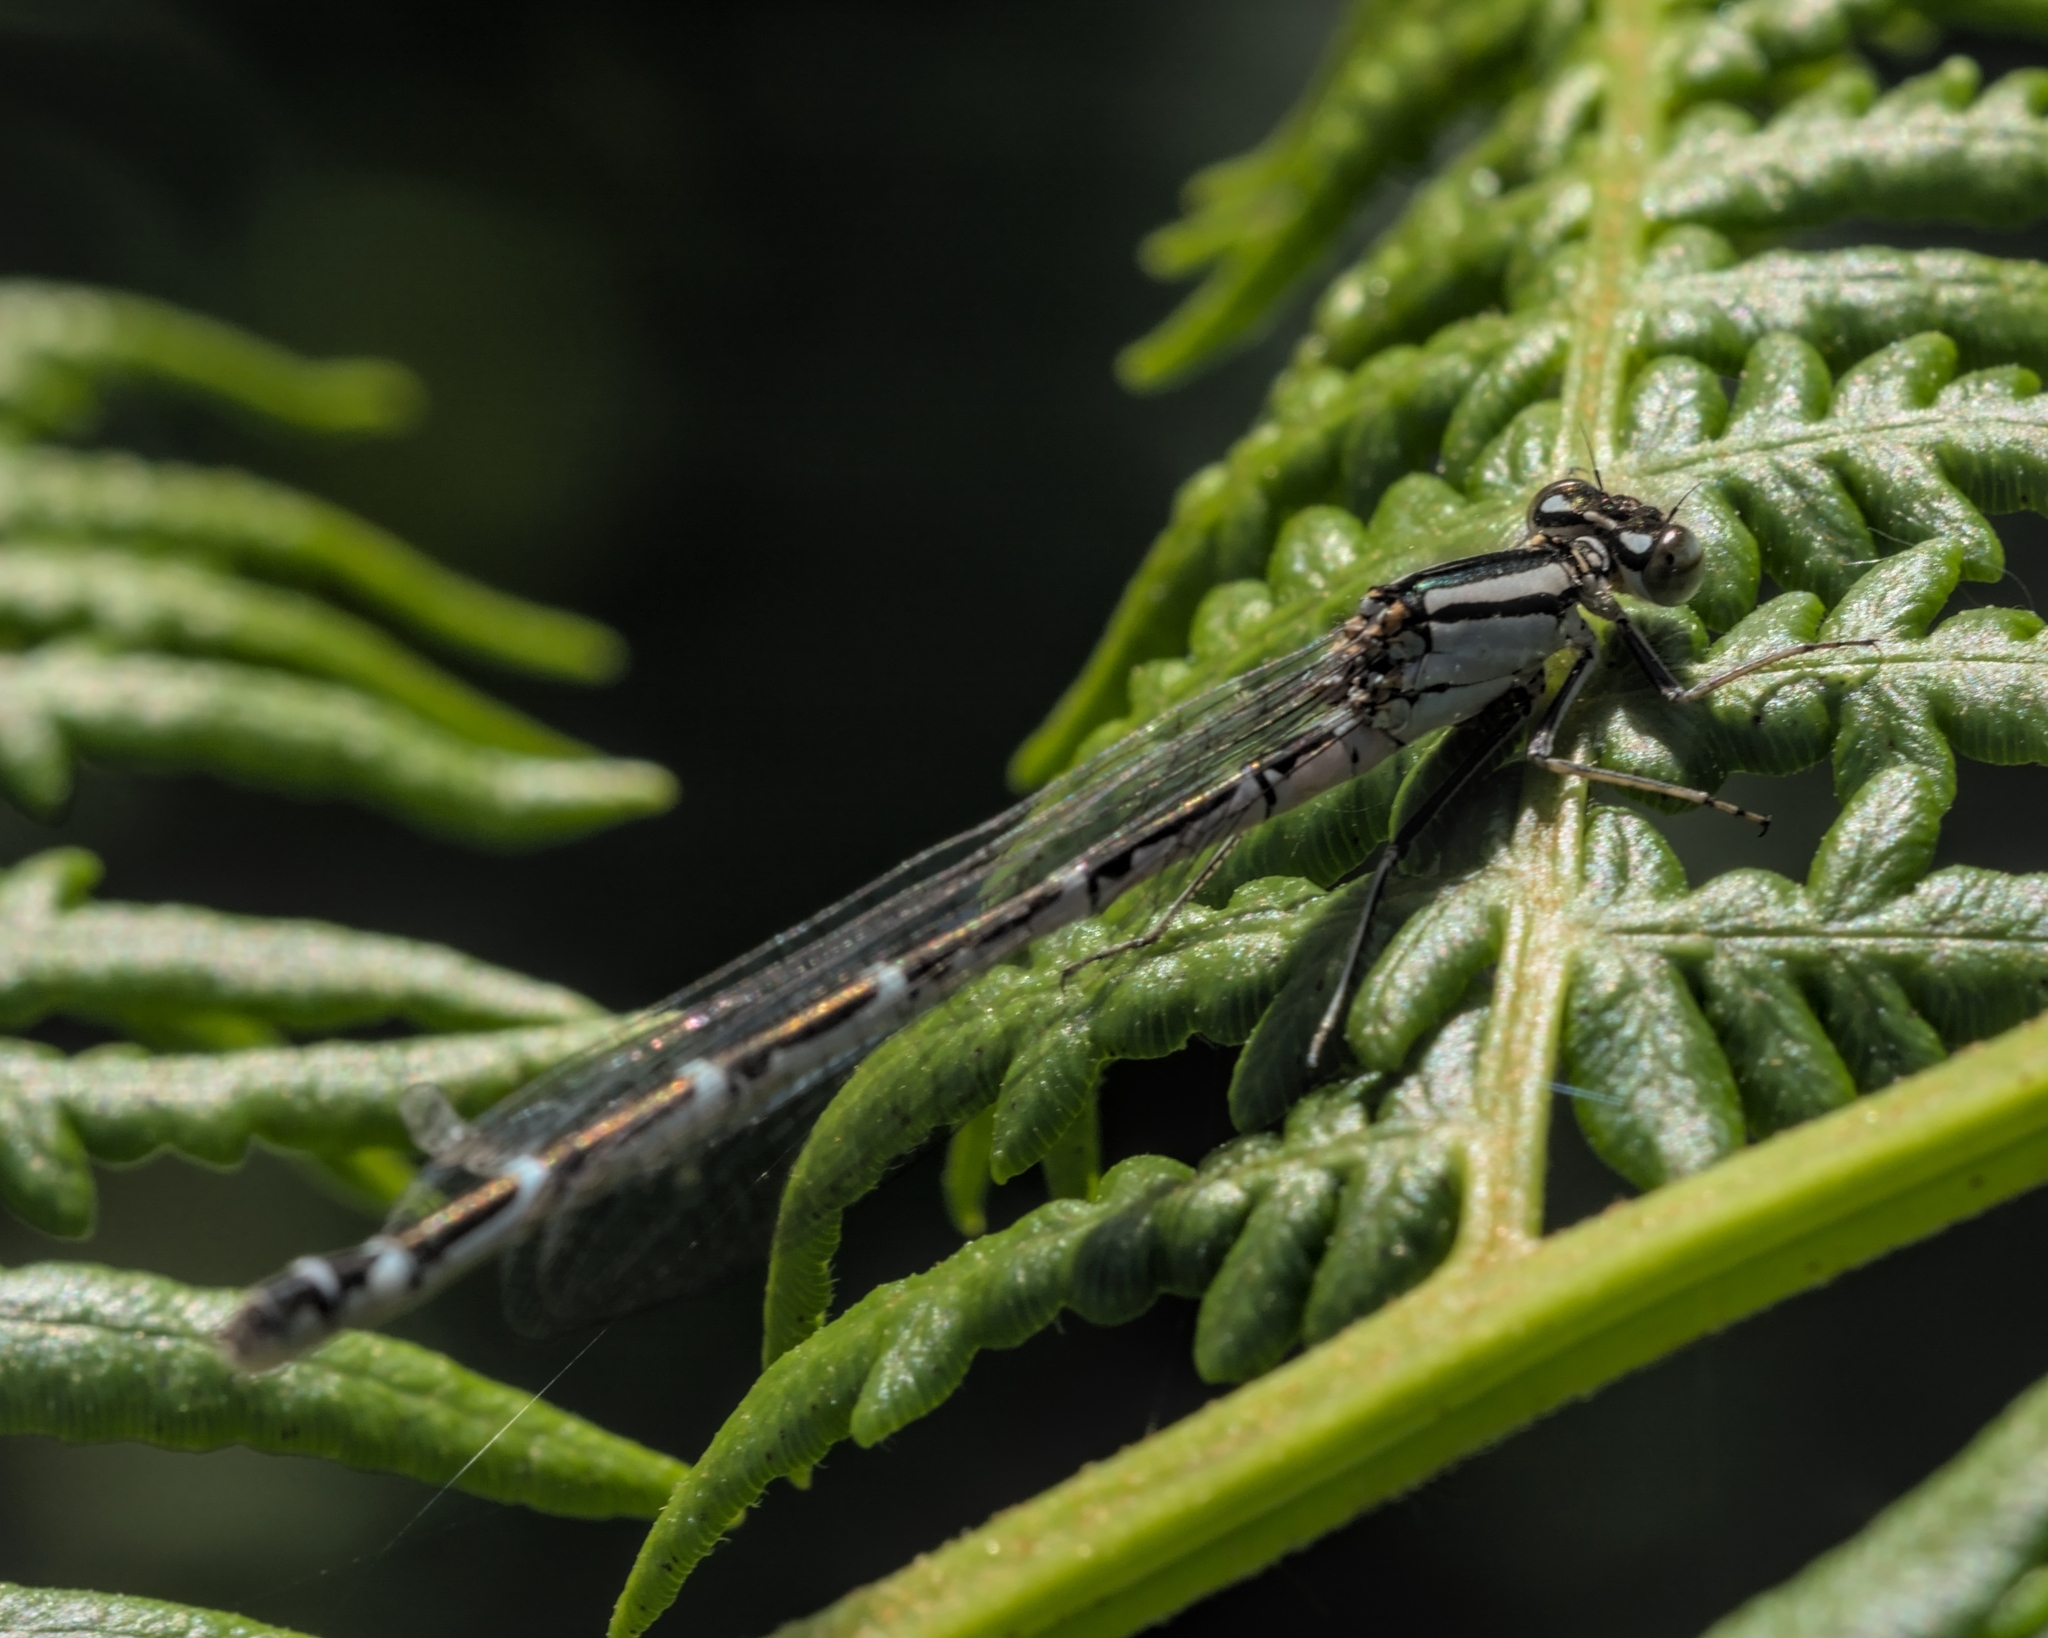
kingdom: Animalia
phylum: Arthropoda
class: Insecta
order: Odonata
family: Coenagrionidae
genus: Enallagma
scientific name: Enallagma cyathigerum
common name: Common blue damselfly
